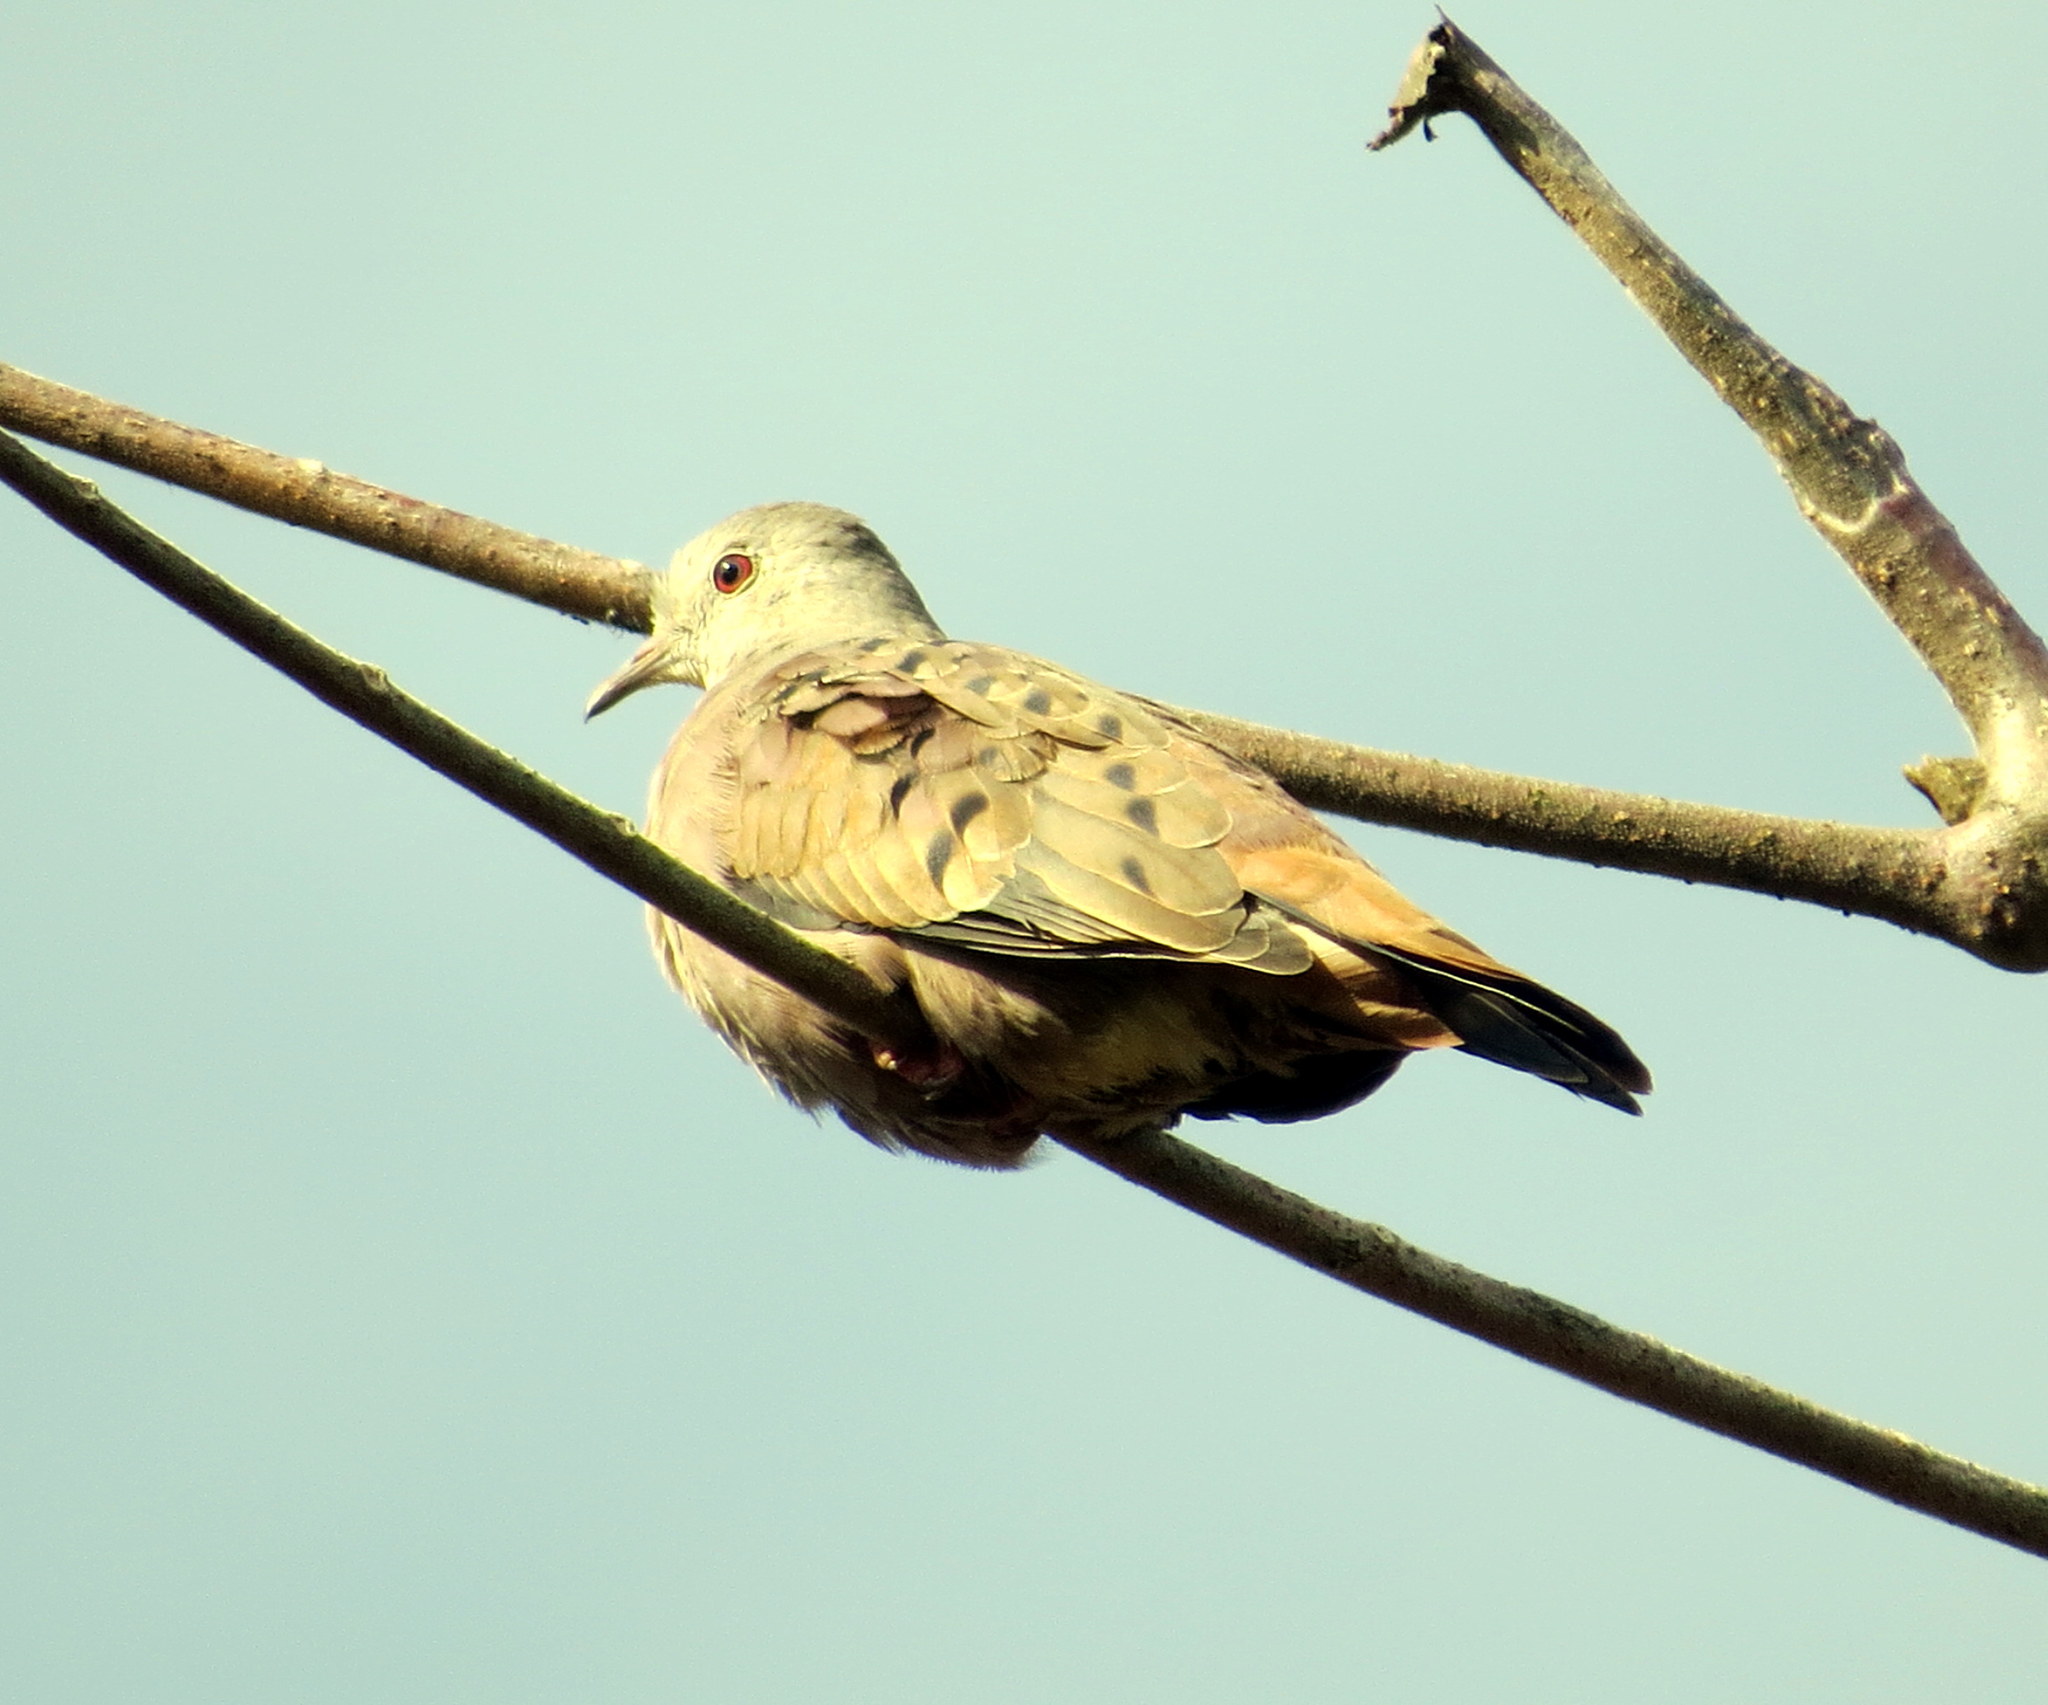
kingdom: Animalia
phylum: Chordata
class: Aves
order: Columbiformes
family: Columbidae
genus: Columbina
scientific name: Columbina talpacoti
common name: Ruddy ground dove
